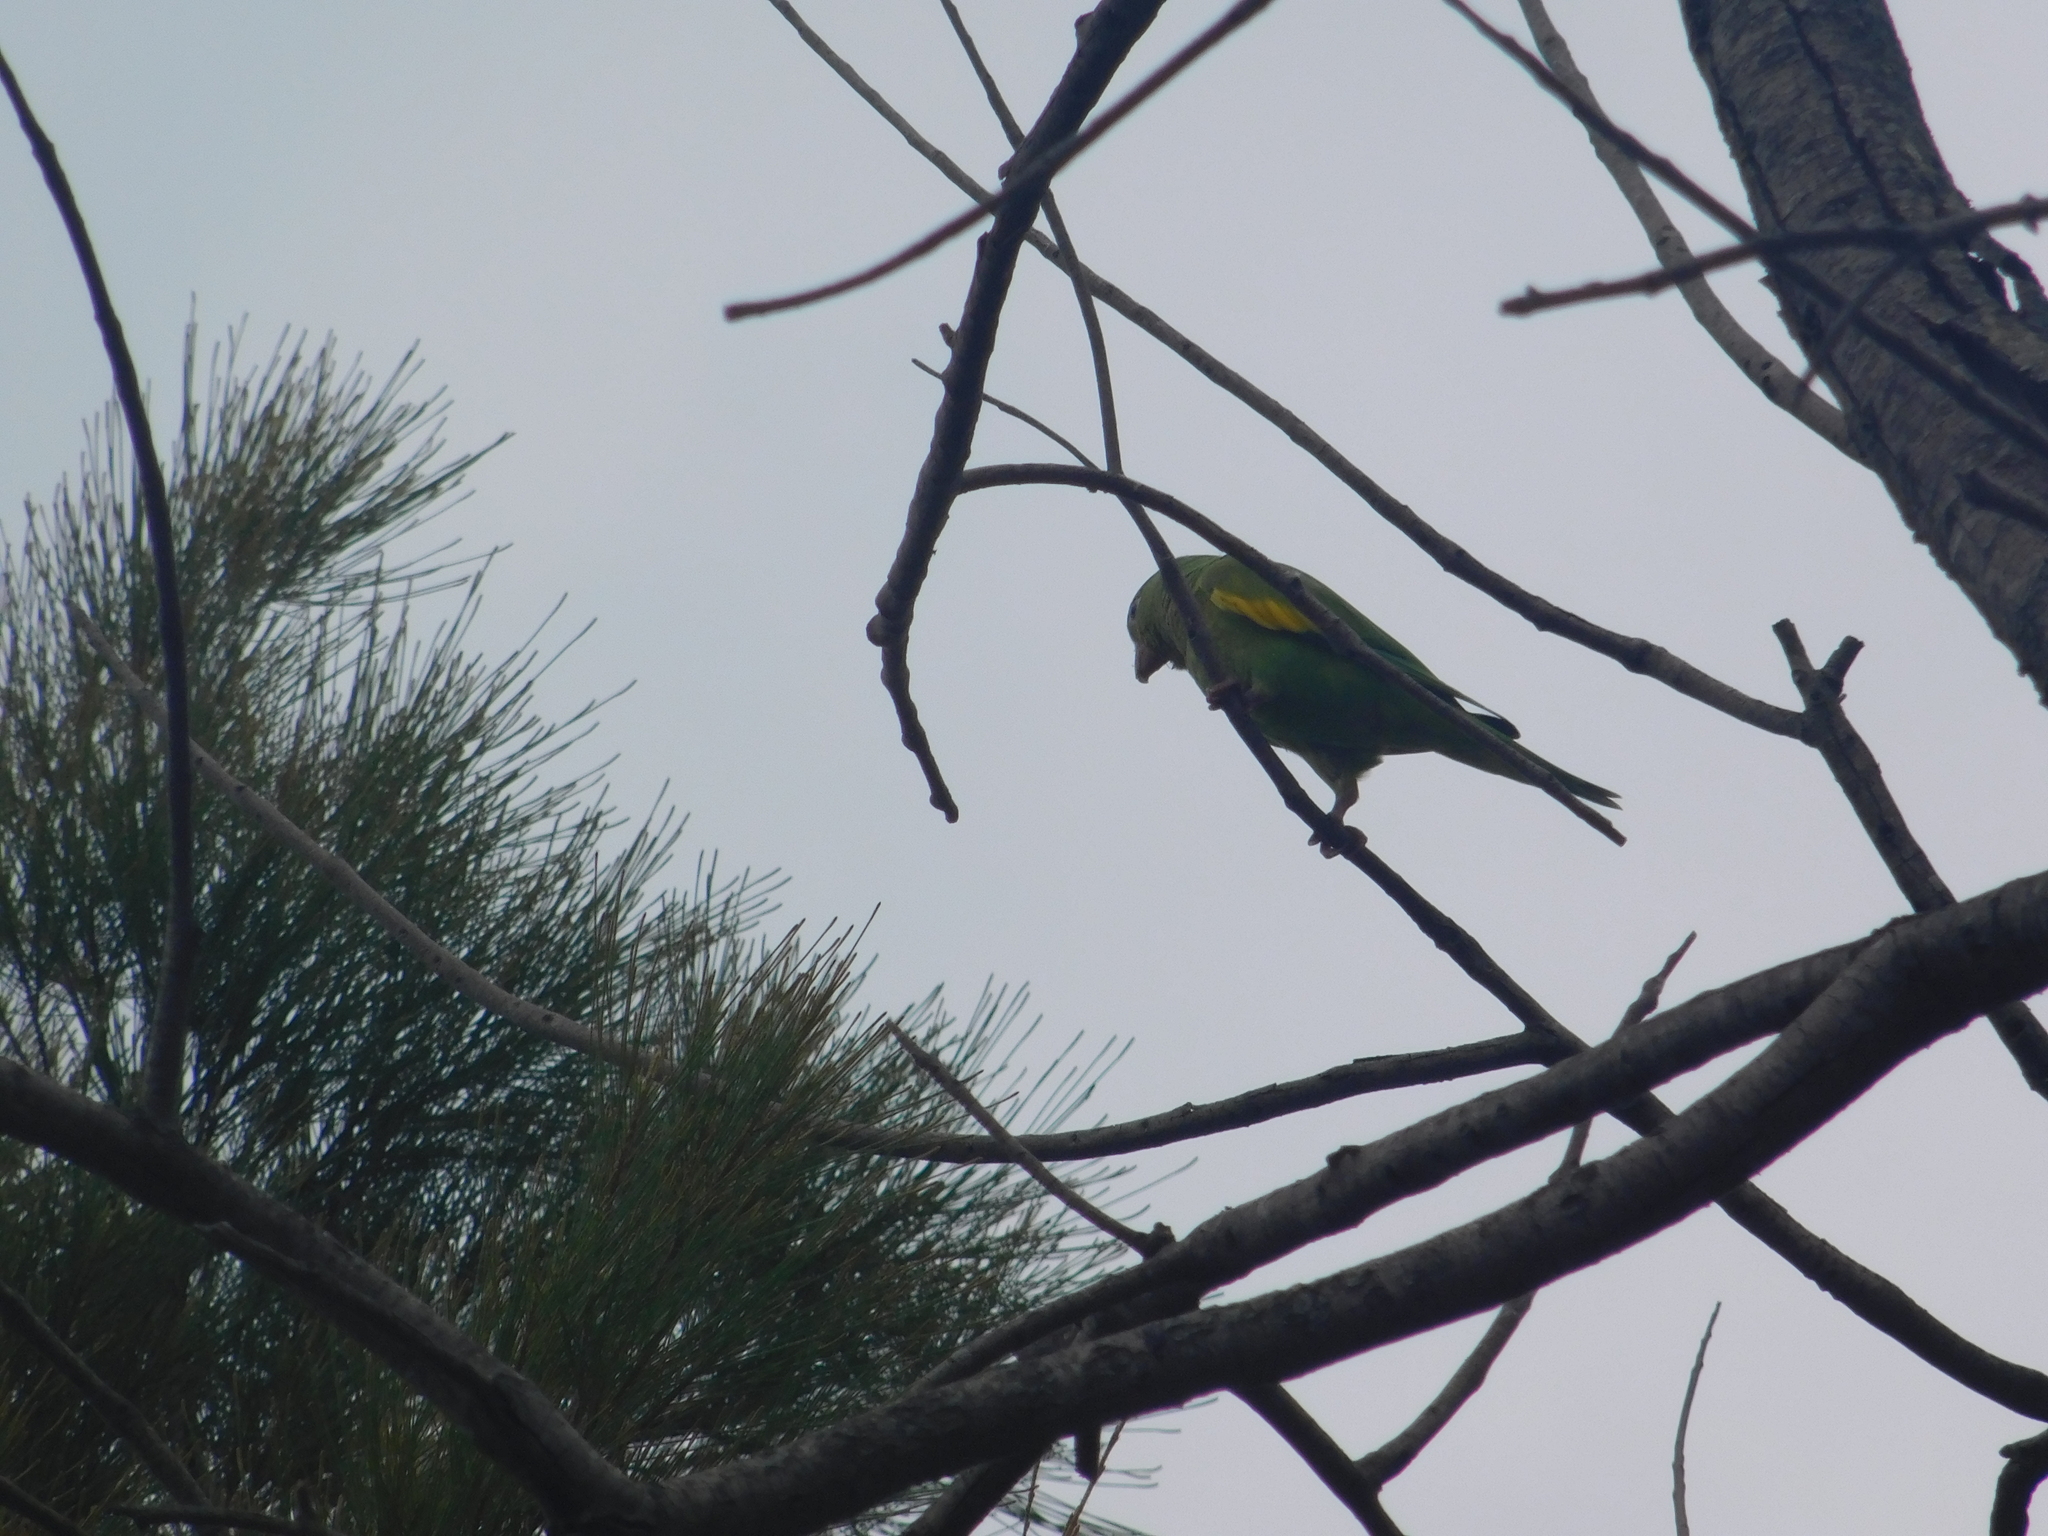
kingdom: Animalia
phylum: Chordata
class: Aves
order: Psittaciformes
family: Psittacidae
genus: Brotogeris
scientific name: Brotogeris chiriri
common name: Yellow-chevroned parakeet
